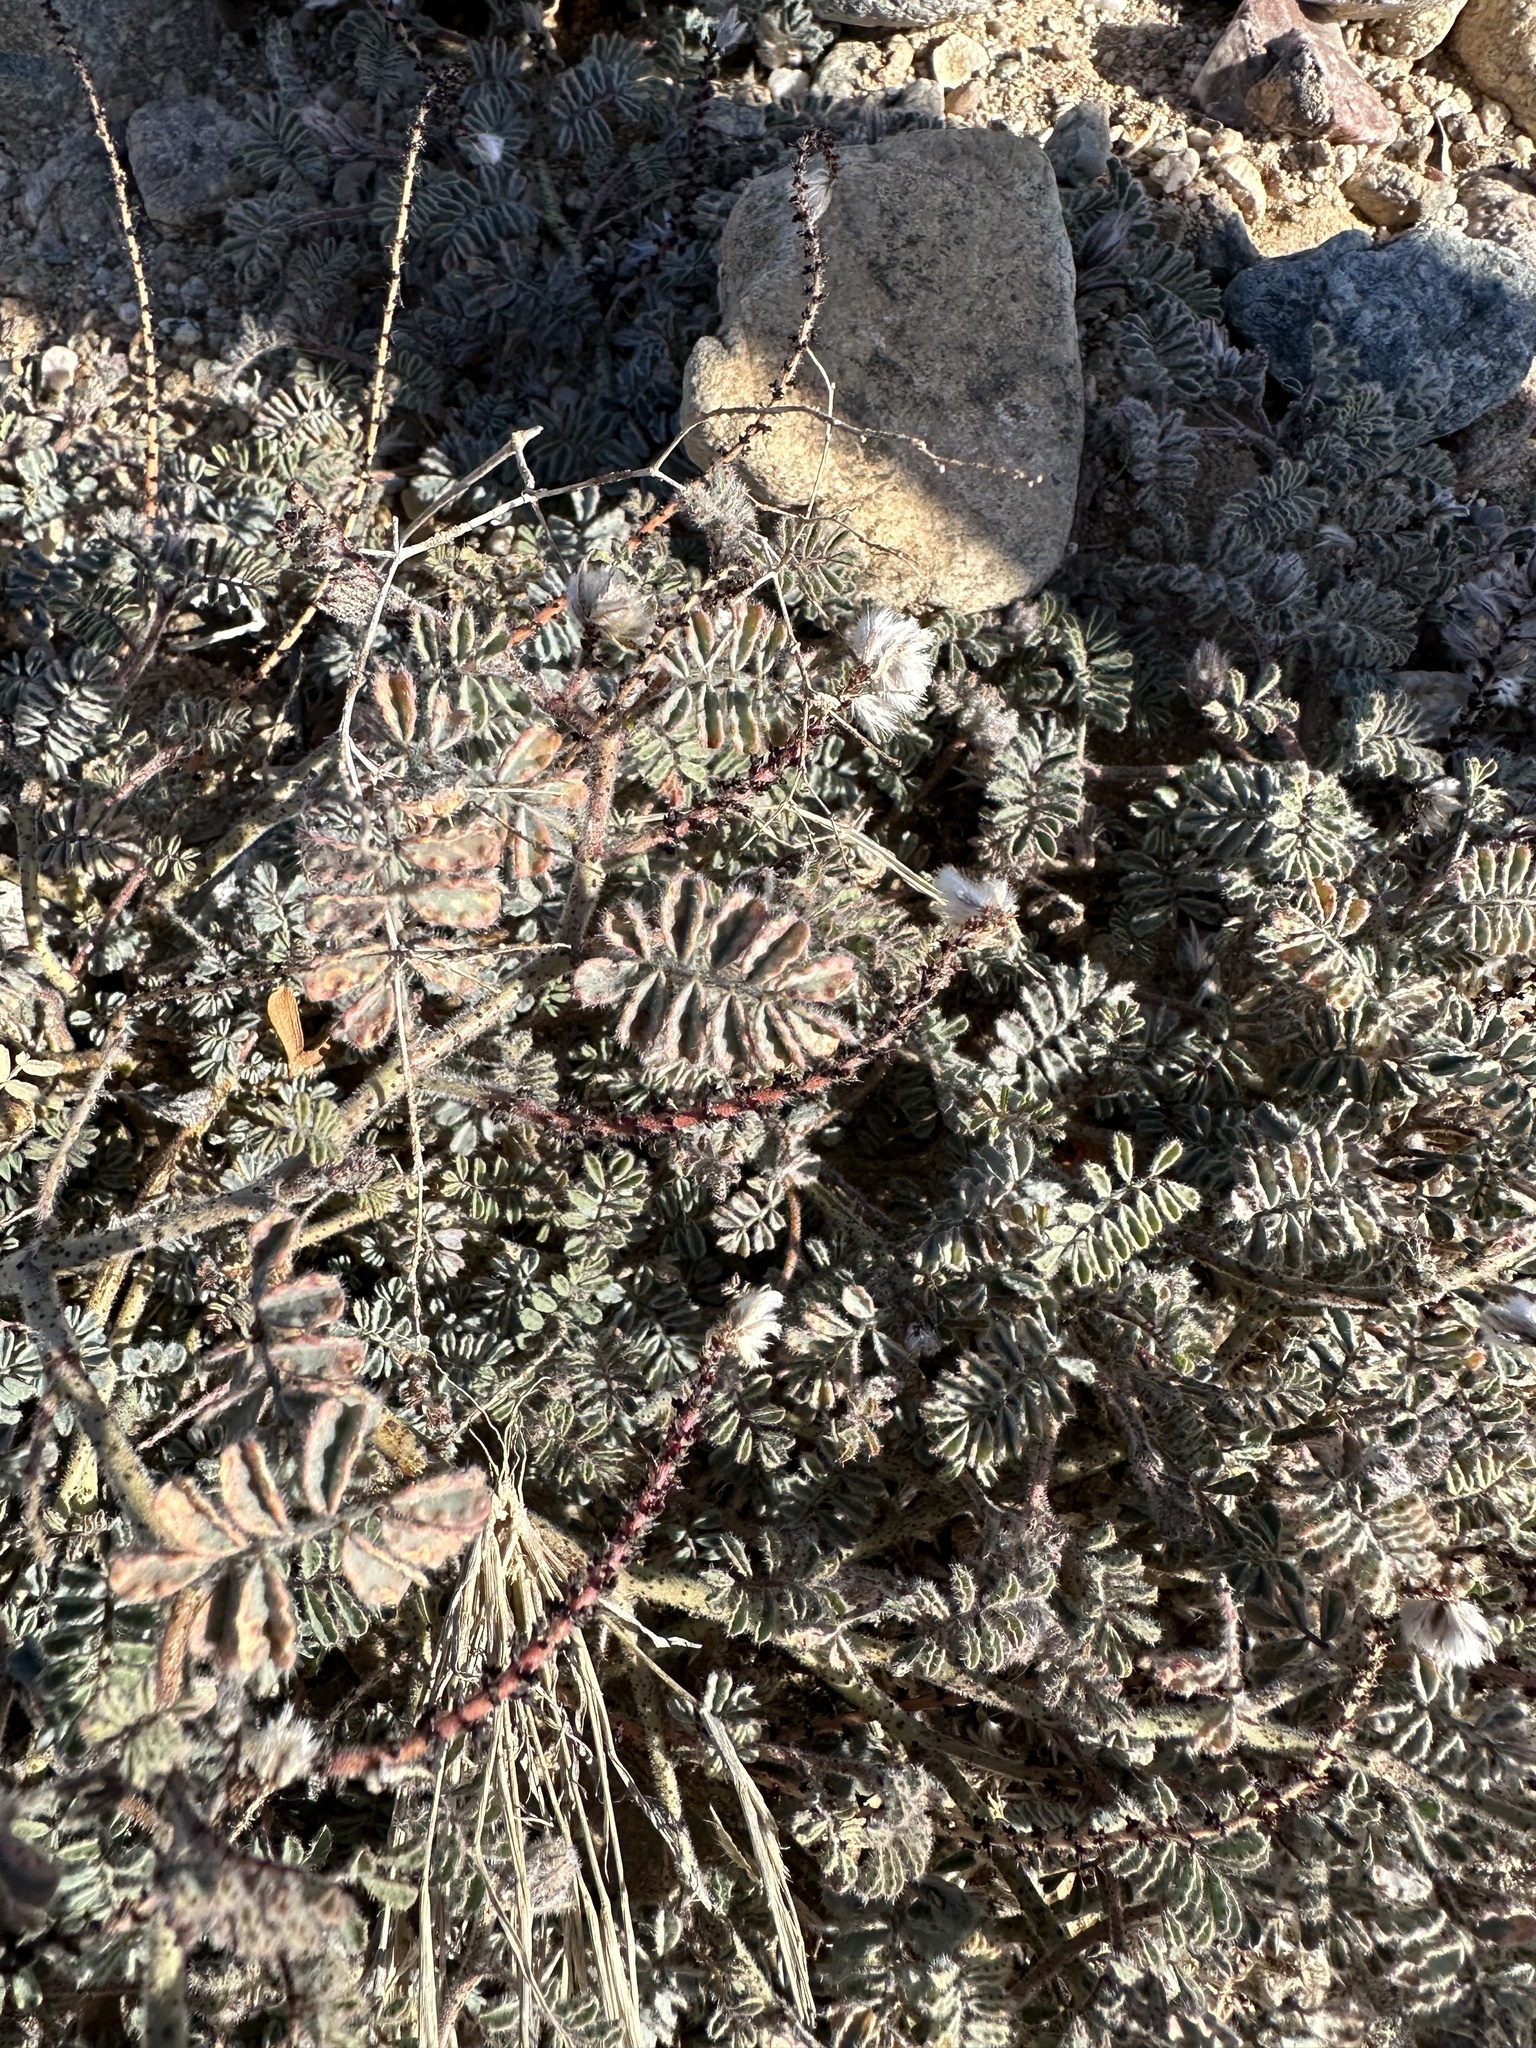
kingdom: Plantae
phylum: Tracheophyta
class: Magnoliopsida
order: Fabales
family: Fabaceae
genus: Dalea
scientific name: Dalea mollissima
